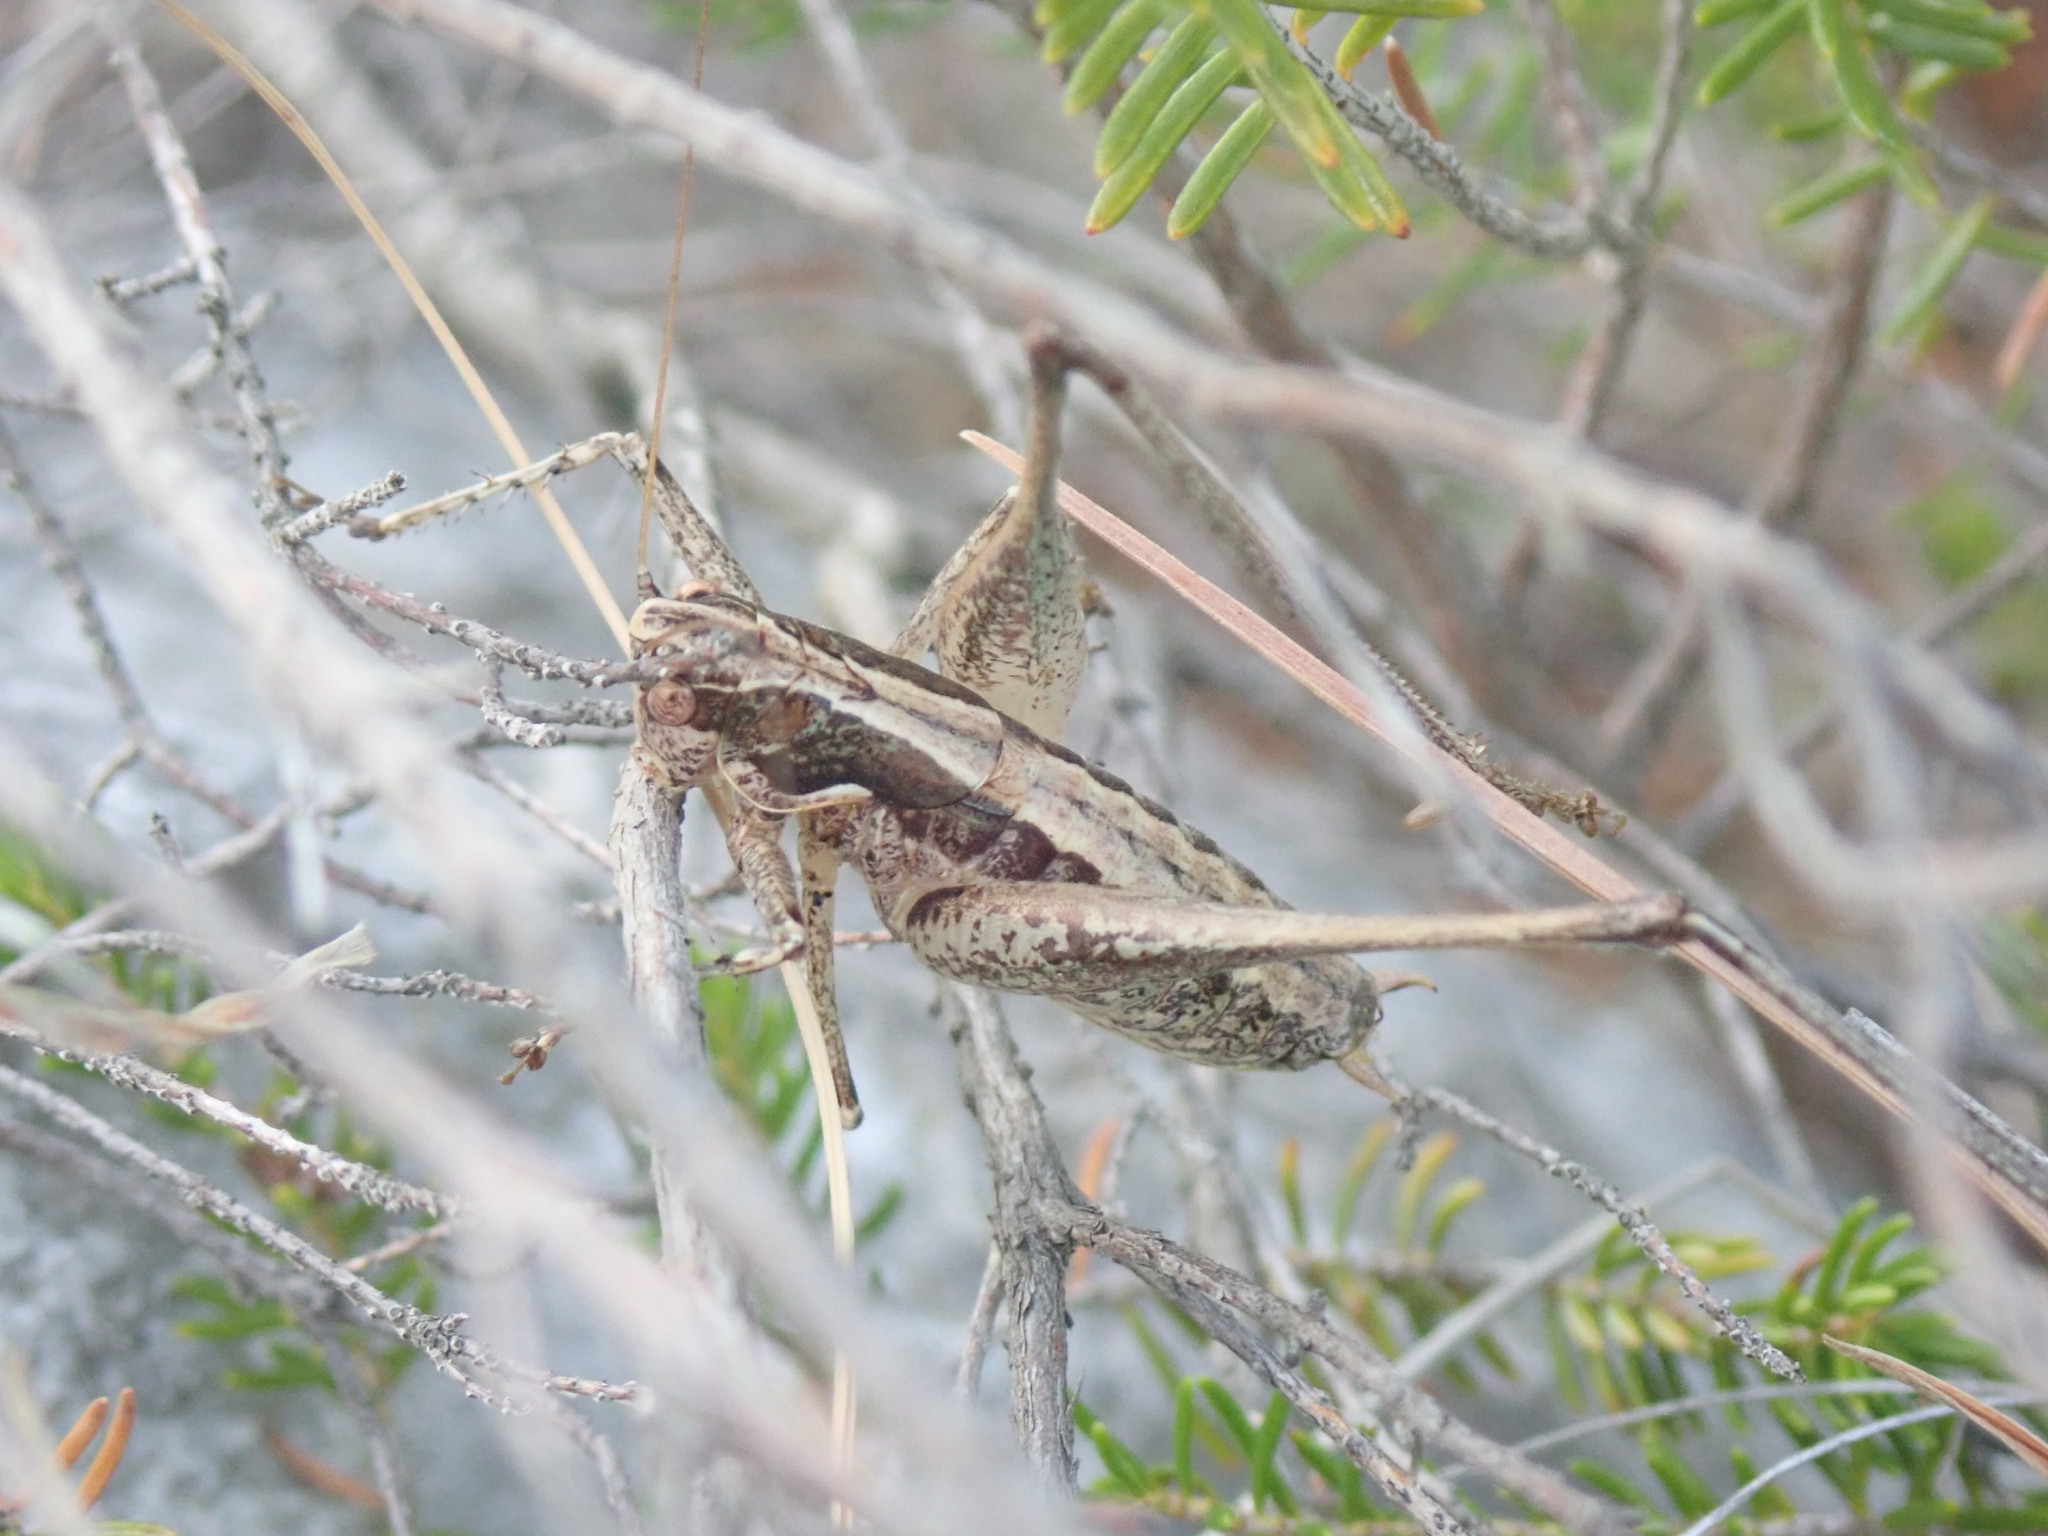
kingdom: Animalia
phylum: Arthropoda
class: Insecta
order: Orthoptera
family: Tettigoniidae
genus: Rhacocleis
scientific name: Rhacocleis germanica
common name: Mediterranean bush-cricket
